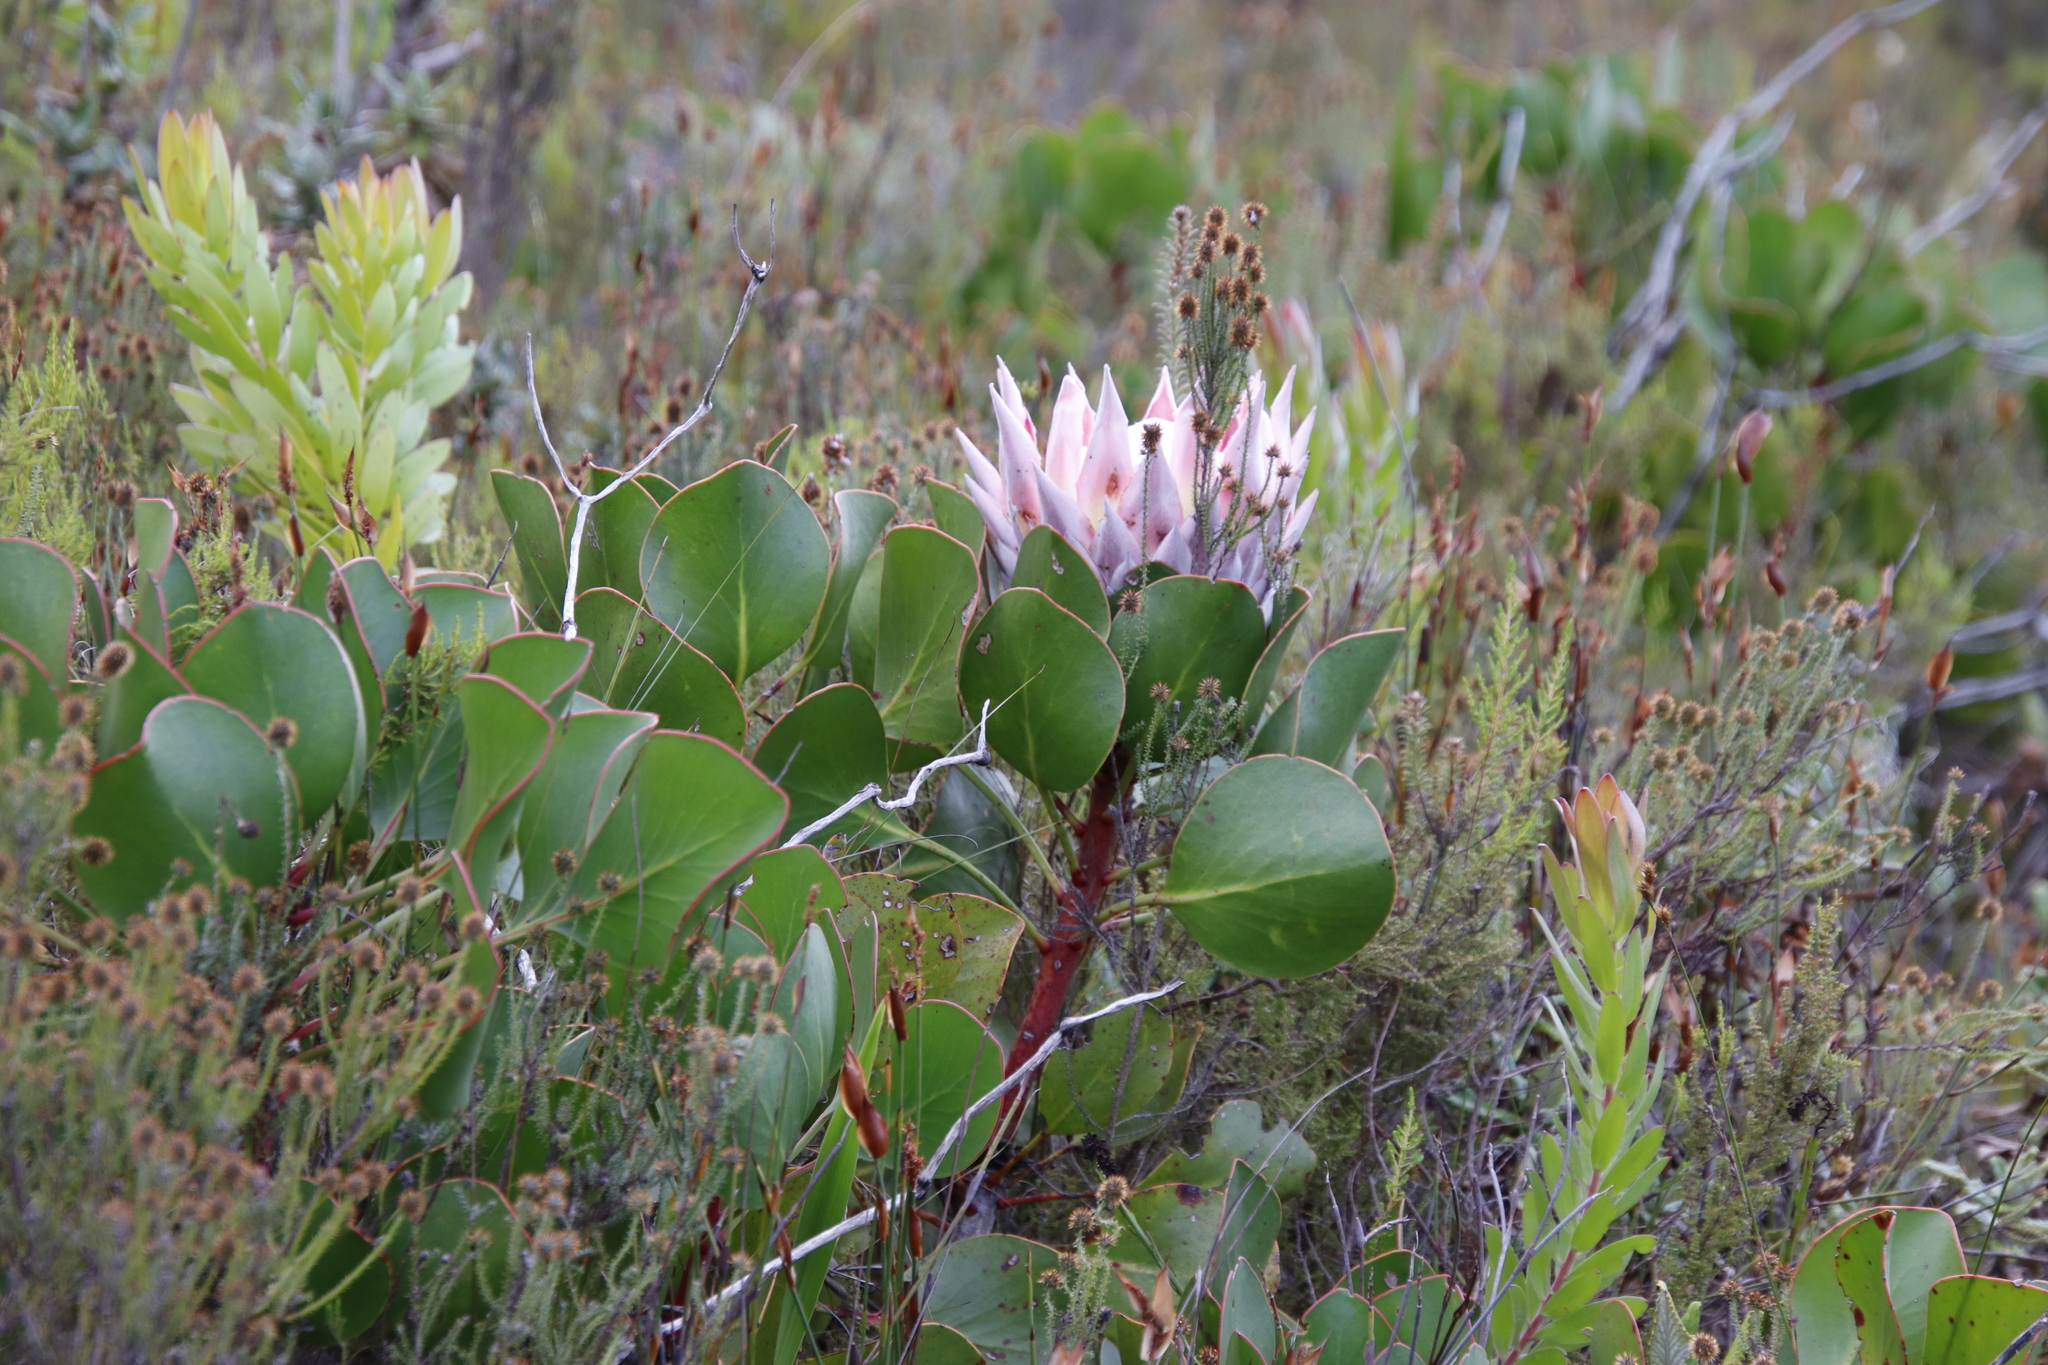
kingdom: Plantae
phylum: Tracheophyta
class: Magnoliopsida
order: Proteales
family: Proteaceae
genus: Protea
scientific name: Protea cynaroides
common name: King protea
